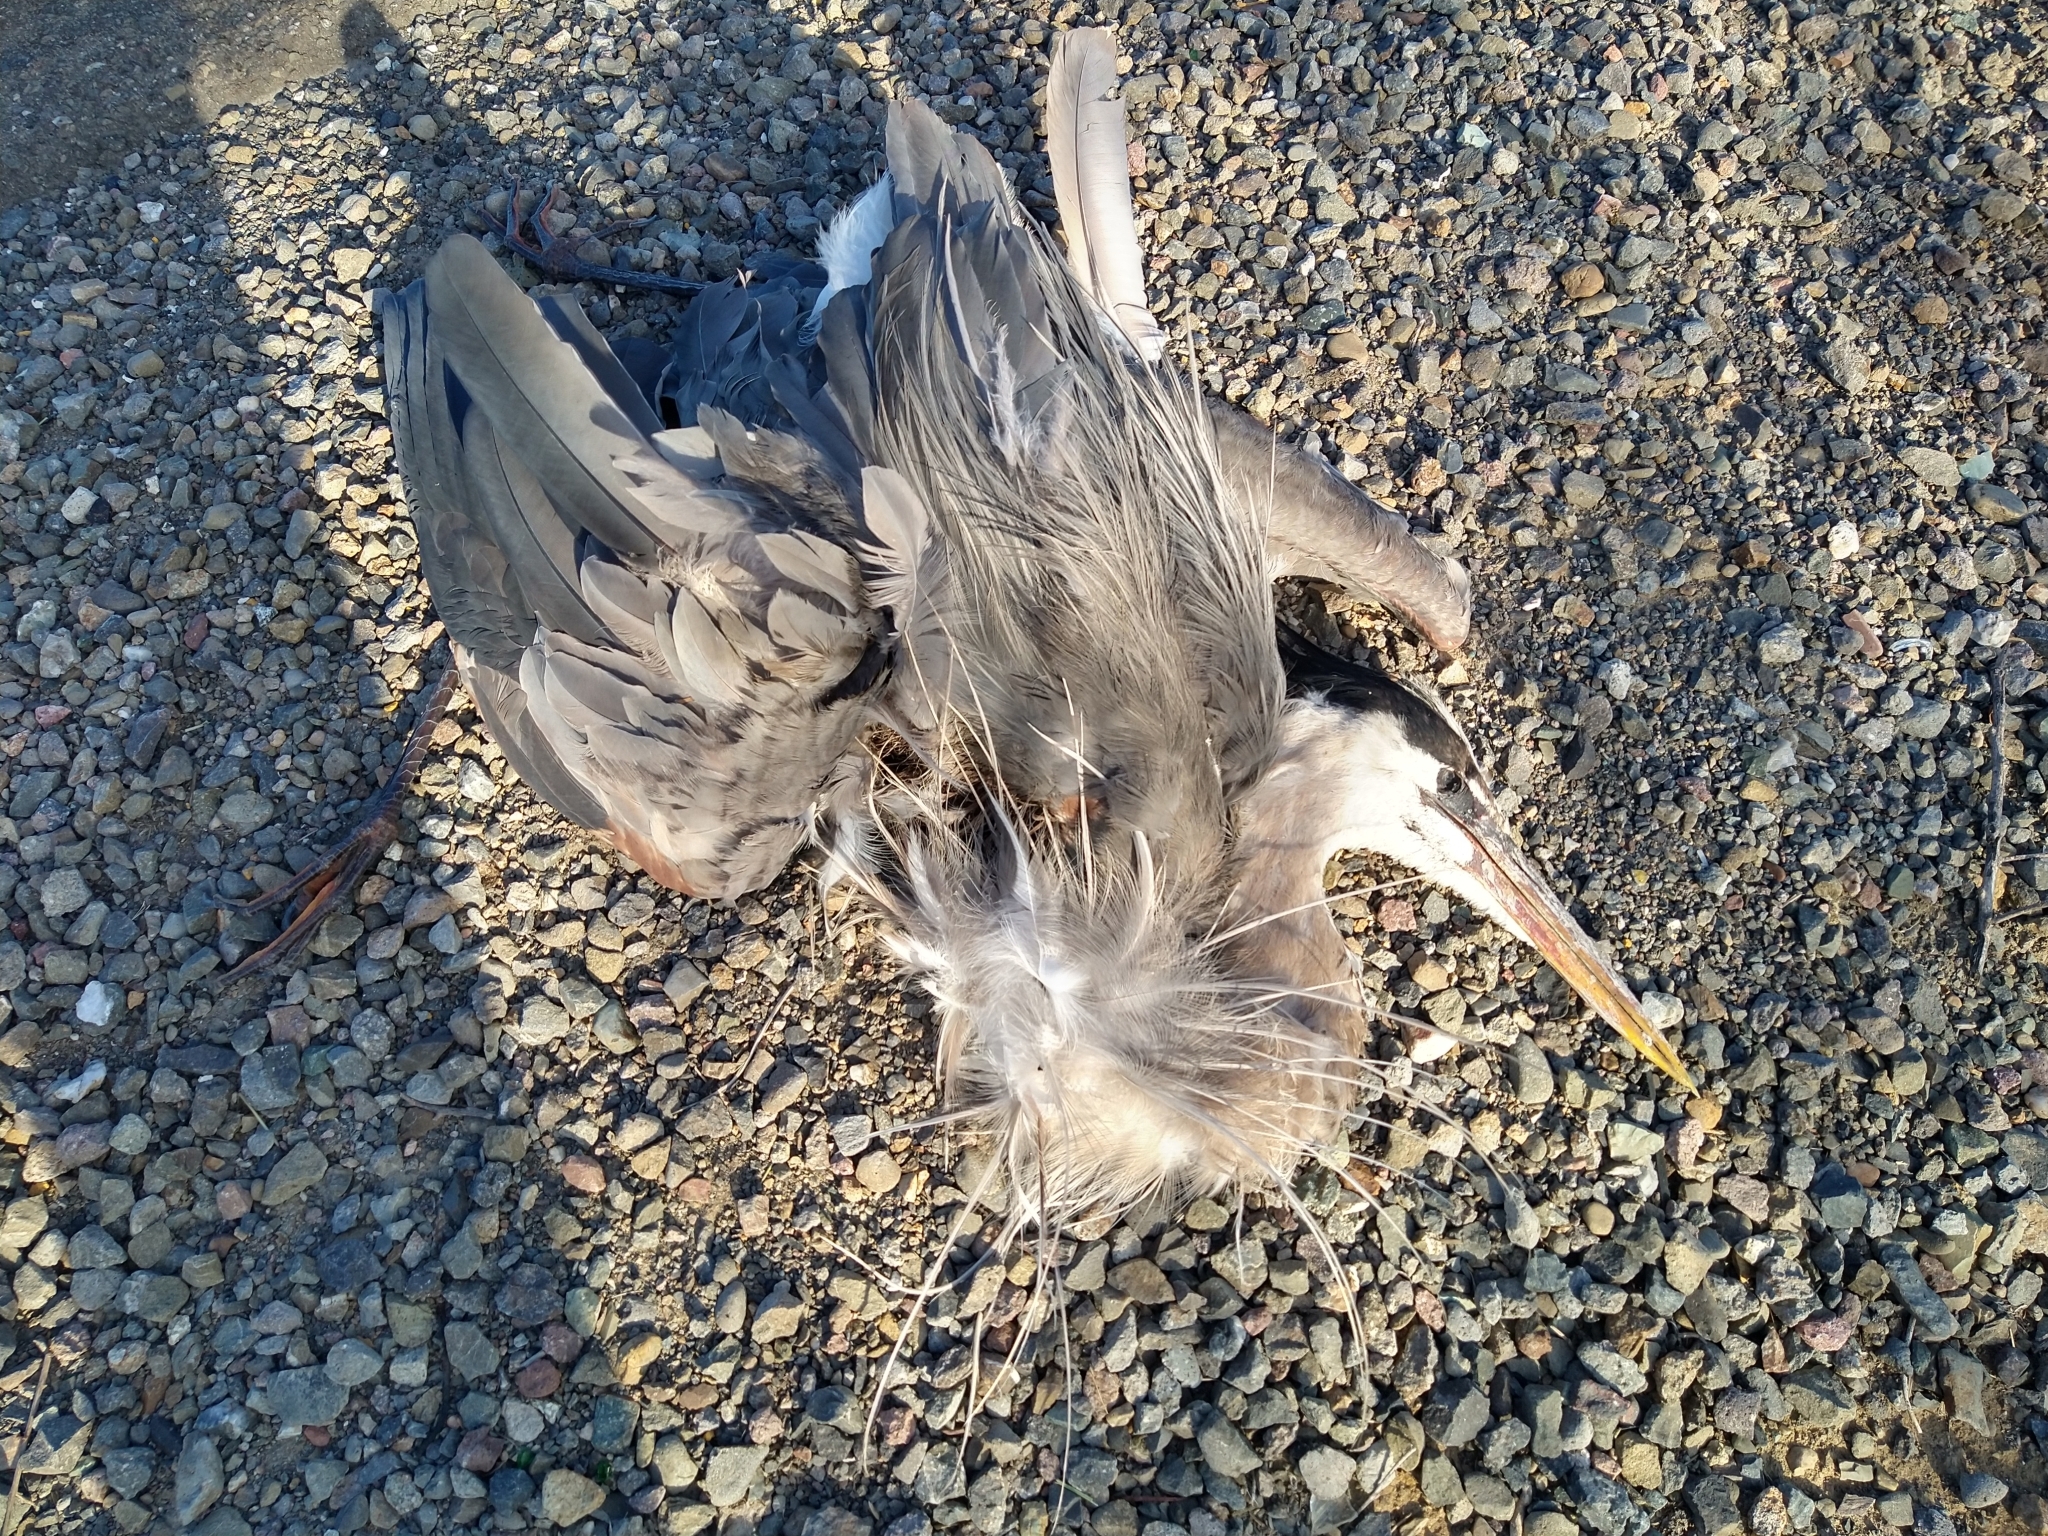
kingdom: Animalia
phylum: Chordata
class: Aves
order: Pelecaniformes
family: Ardeidae
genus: Ardea
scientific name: Ardea herodias
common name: Great blue heron
